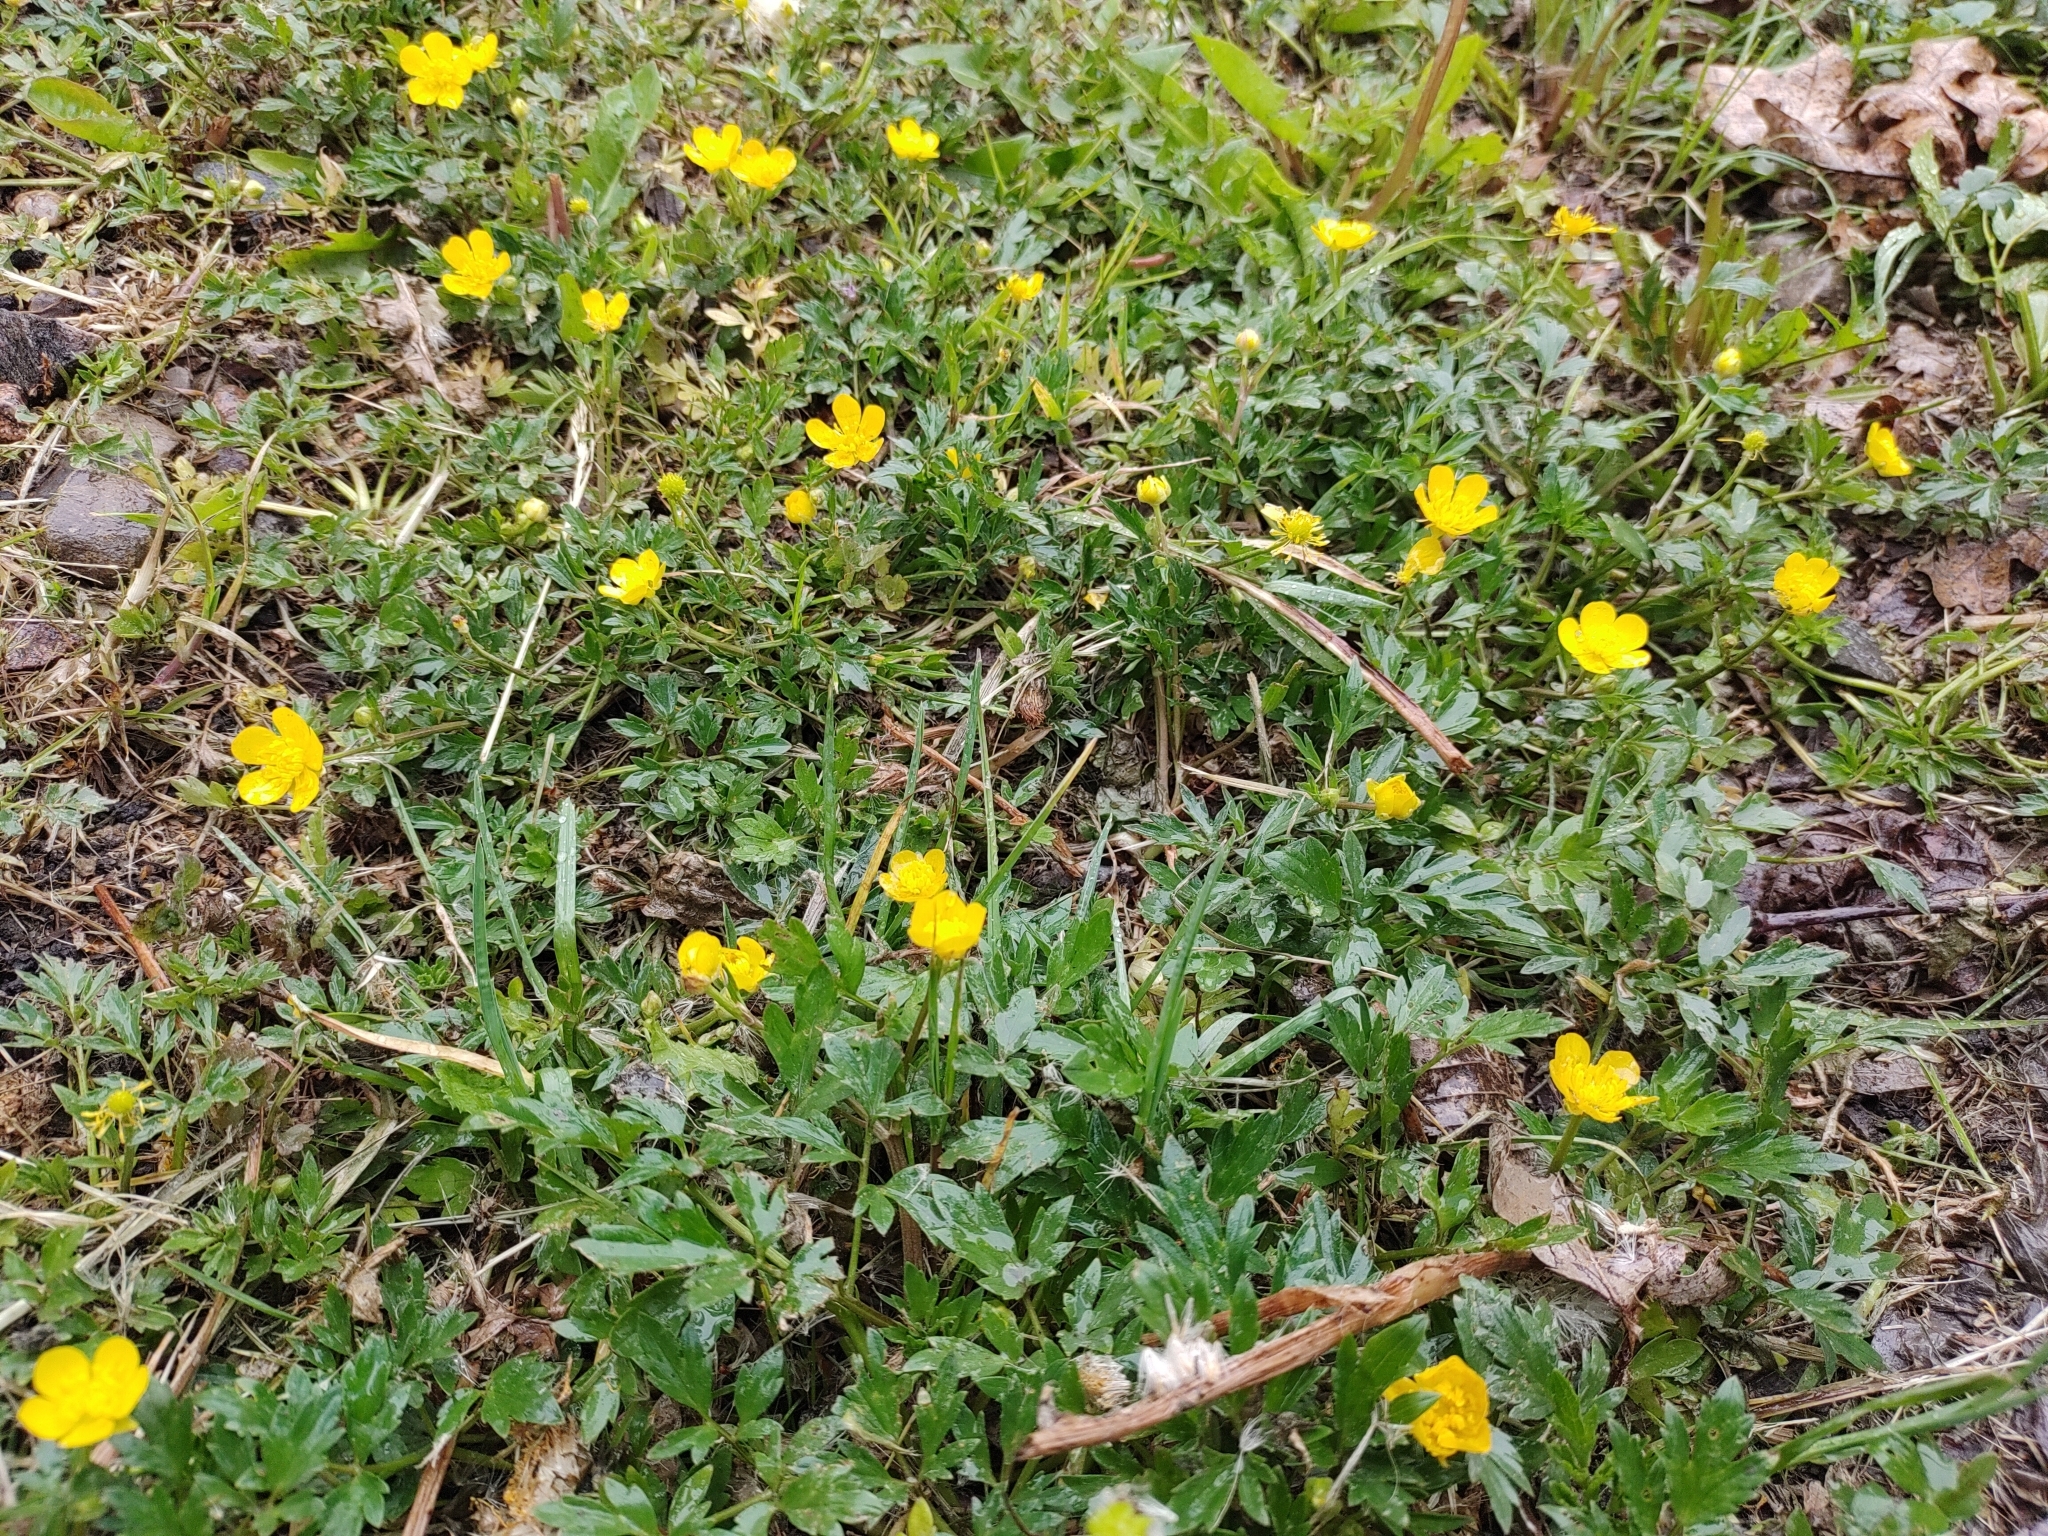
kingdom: Plantae
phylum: Tracheophyta
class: Magnoliopsida
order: Ranunculales
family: Ranunculaceae
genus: Ranunculus
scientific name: Ranunculus repens
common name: Creeping buttercup
